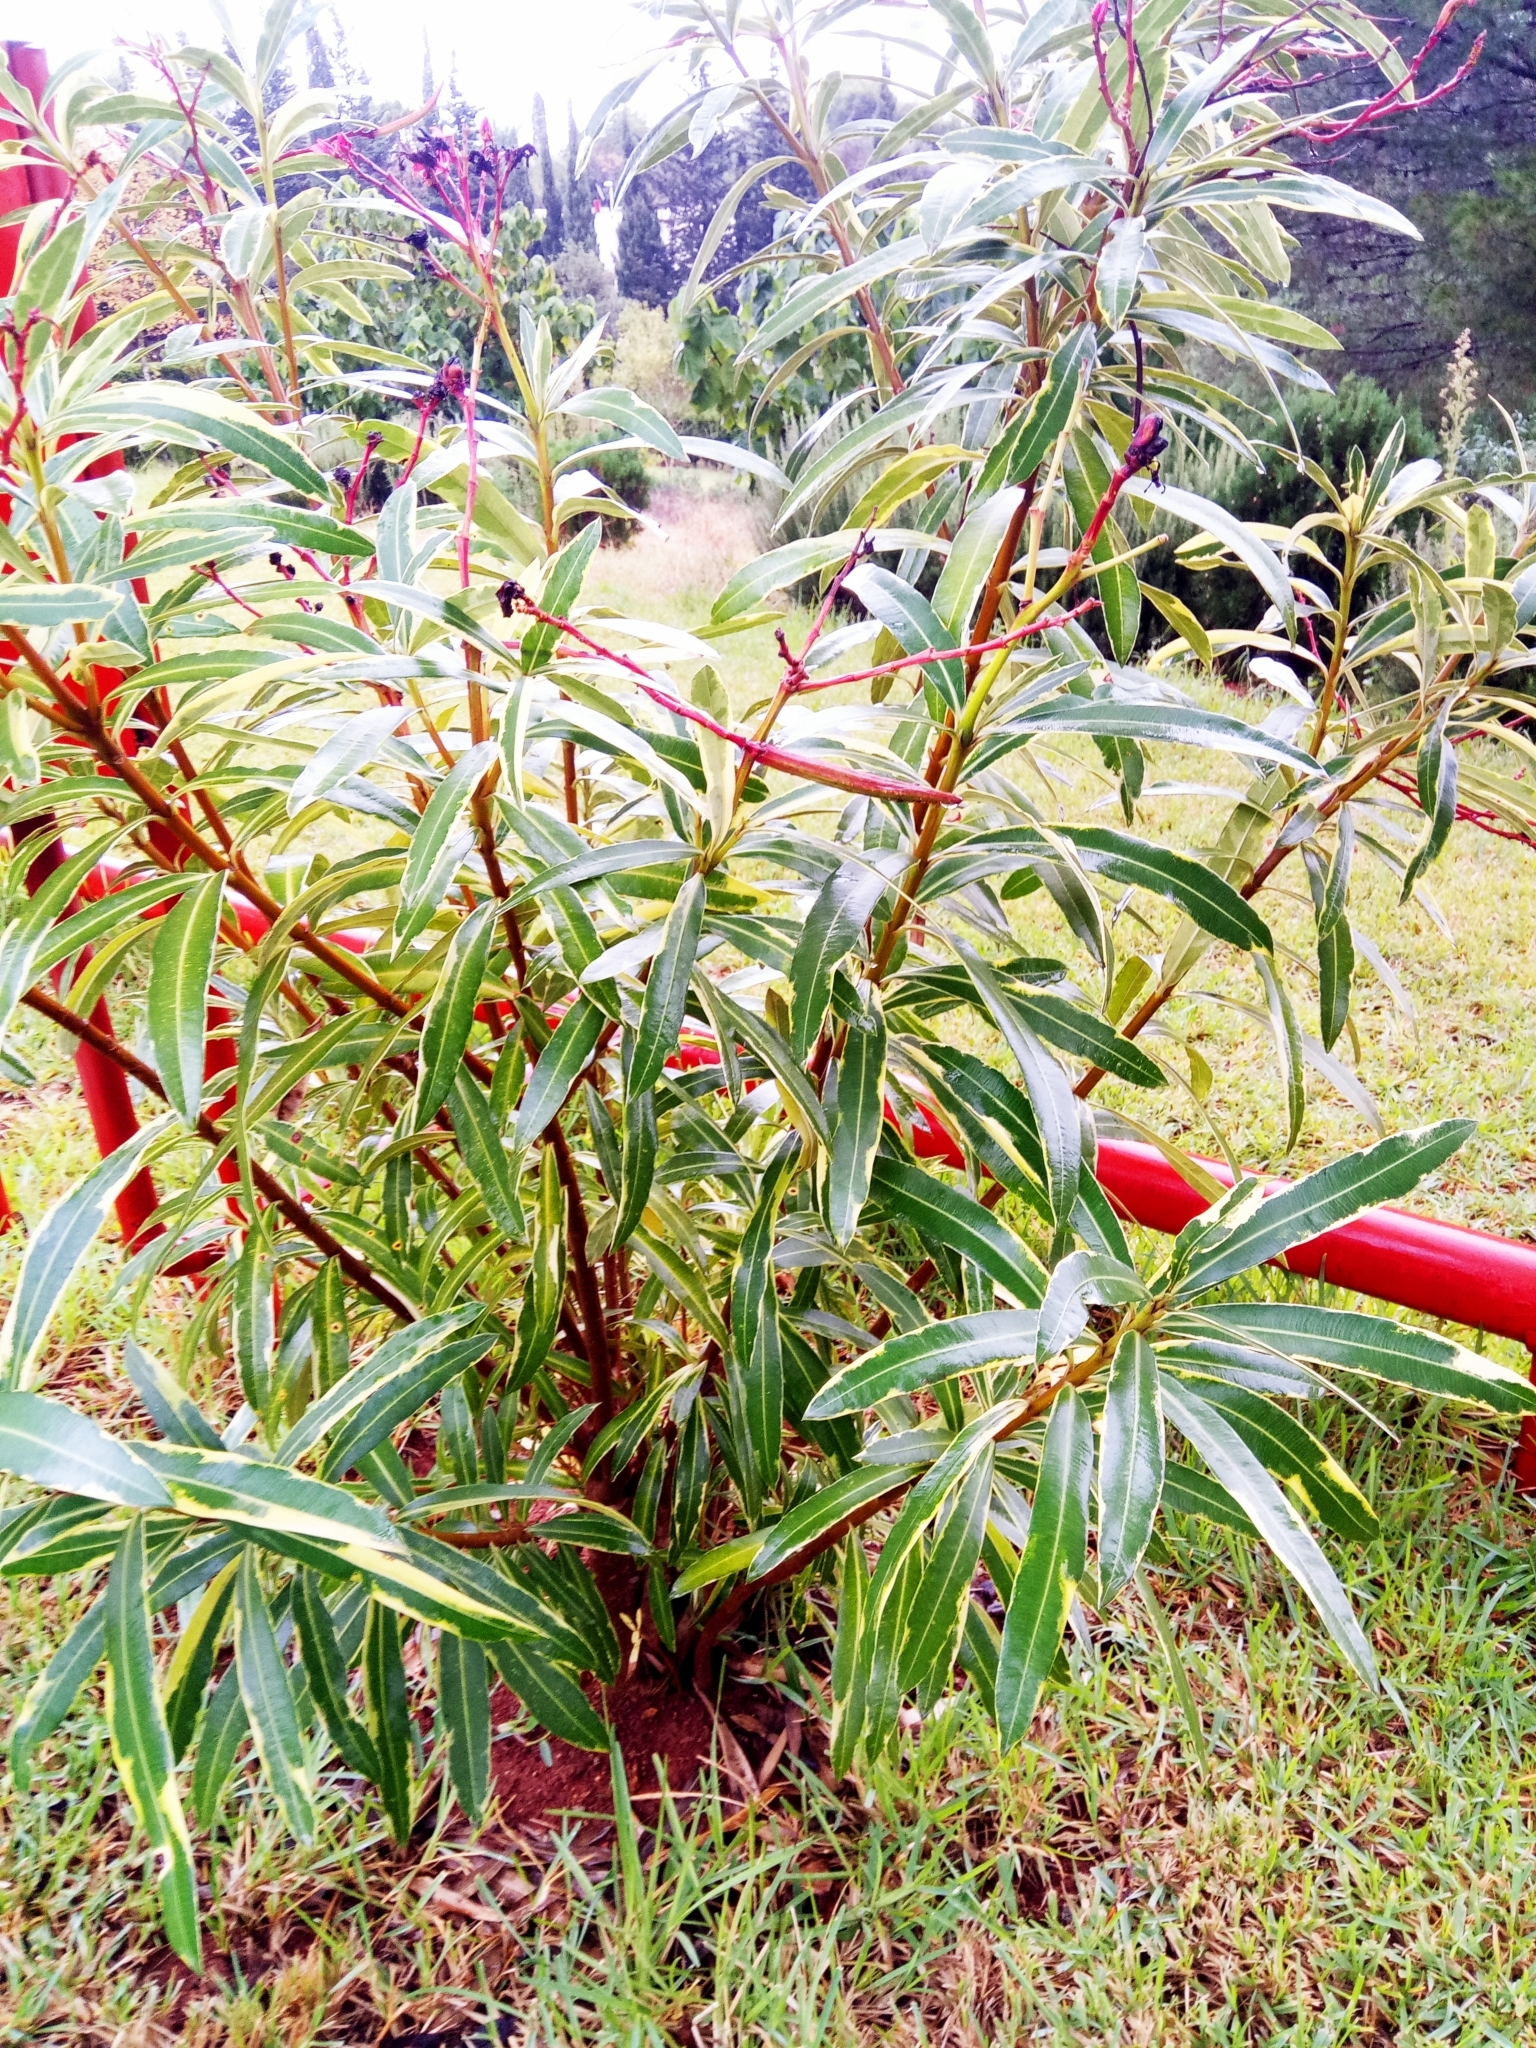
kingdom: Plantae
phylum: Tracheophyta
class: Magnoliopsida
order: Gentianales
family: Apocynaceae
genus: Nerium
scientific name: Nerium oleander
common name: Oleander
